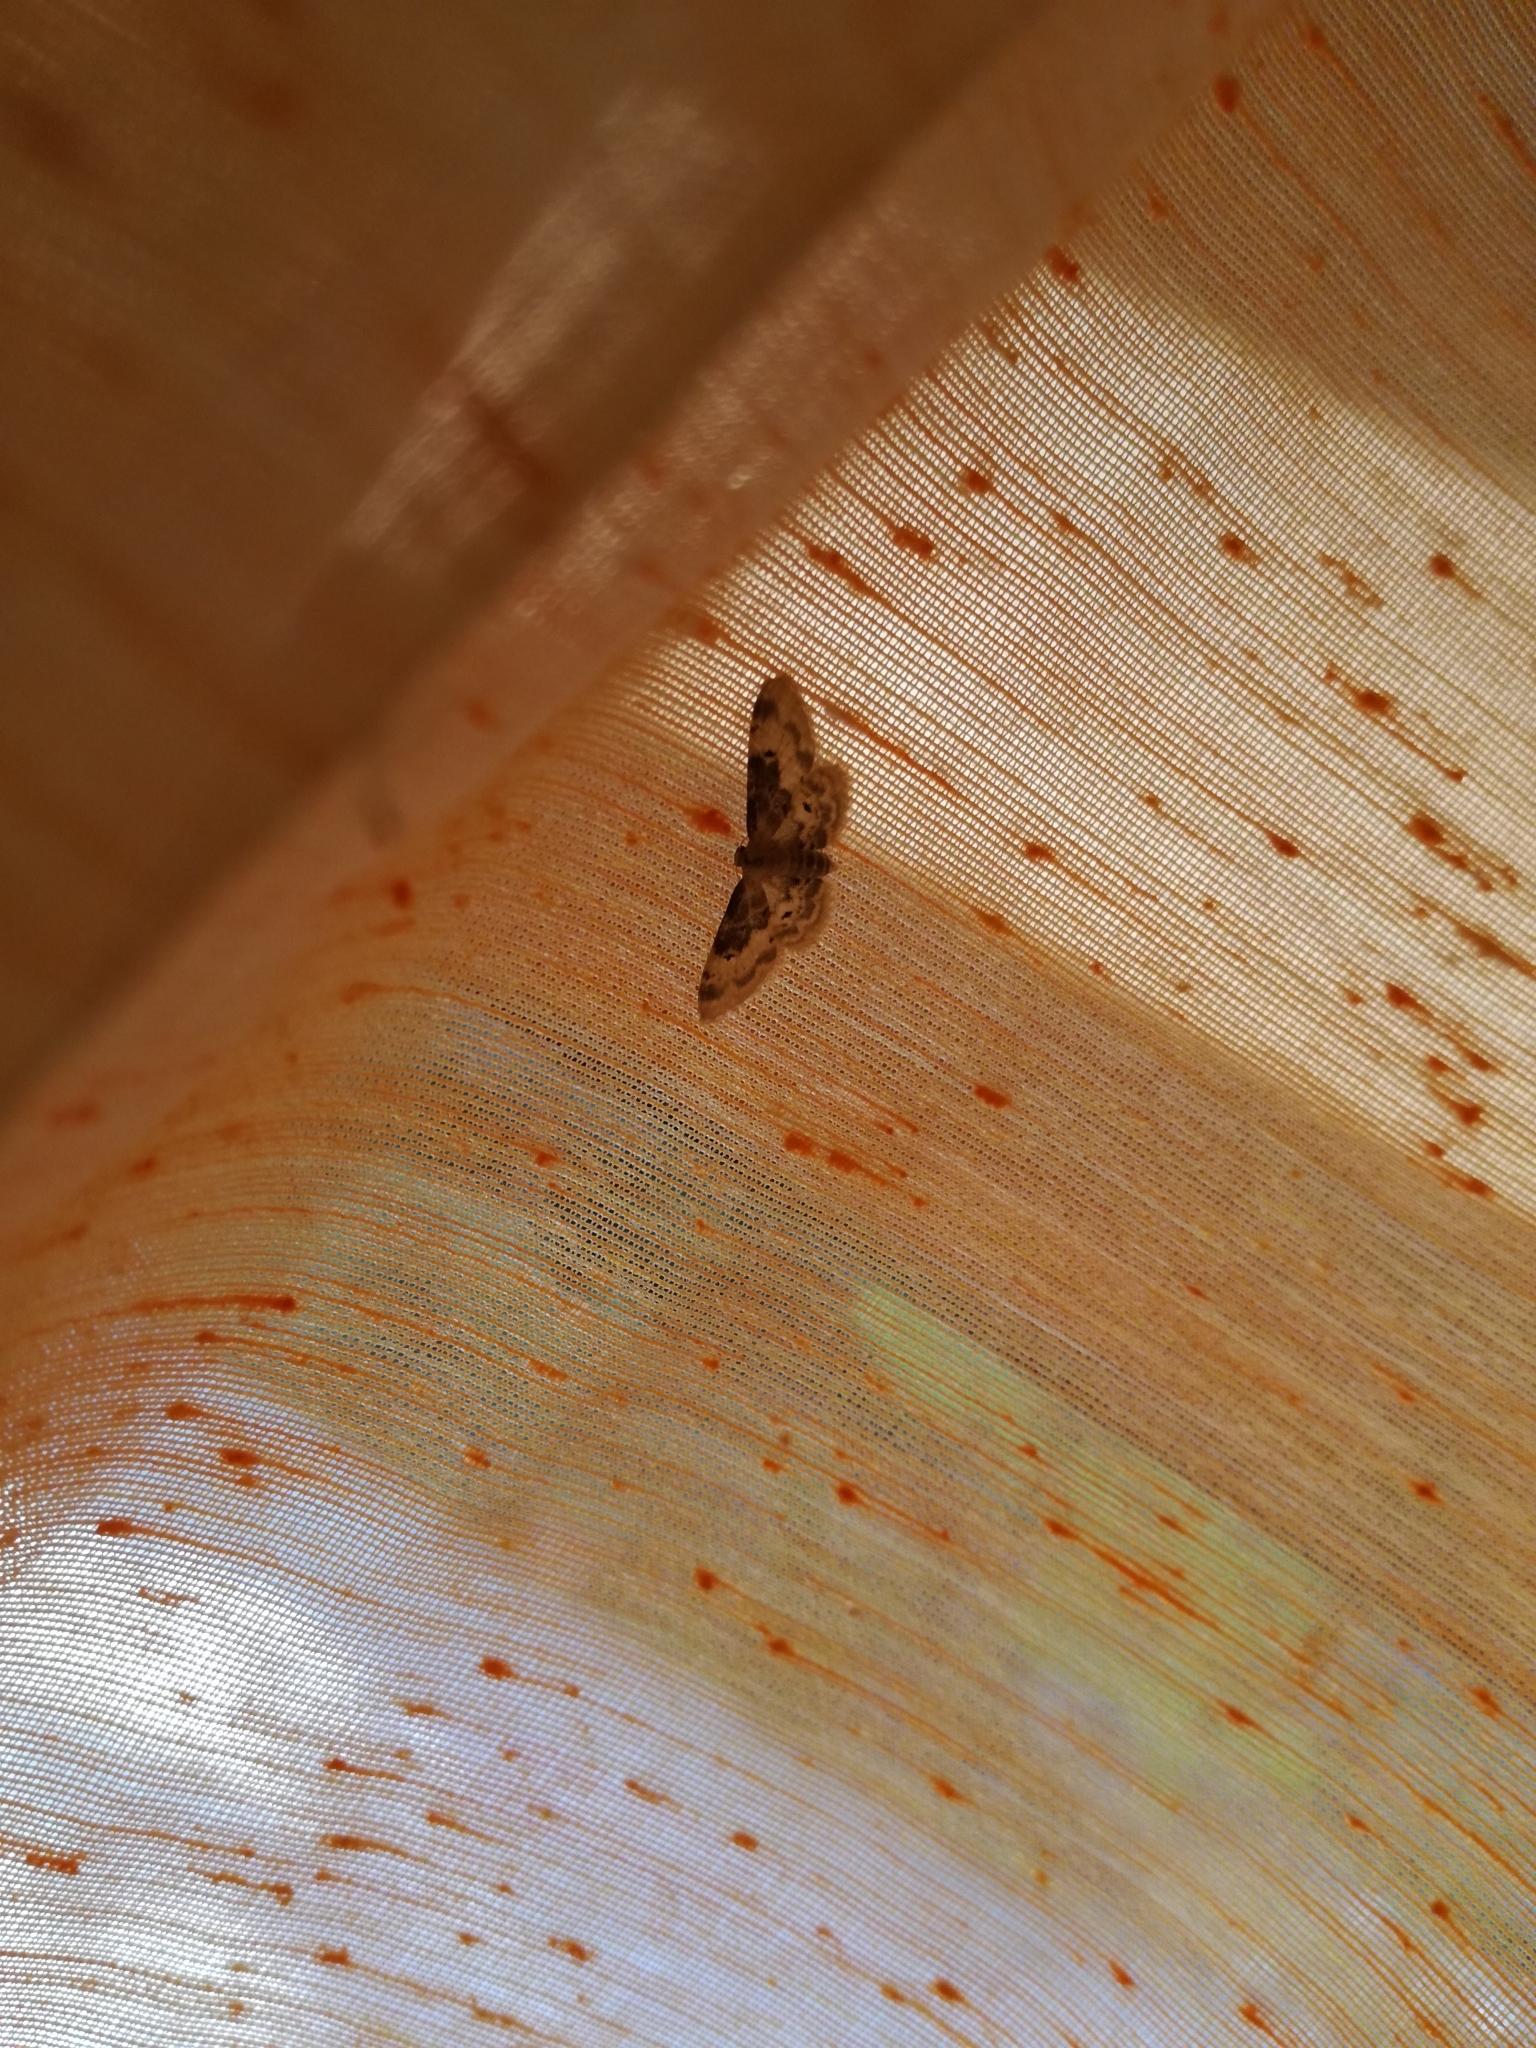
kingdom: Animalia
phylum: Arthropoda
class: Insecta
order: Lepidoptera
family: Geometridae
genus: Idaea
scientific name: Idaea filicata
